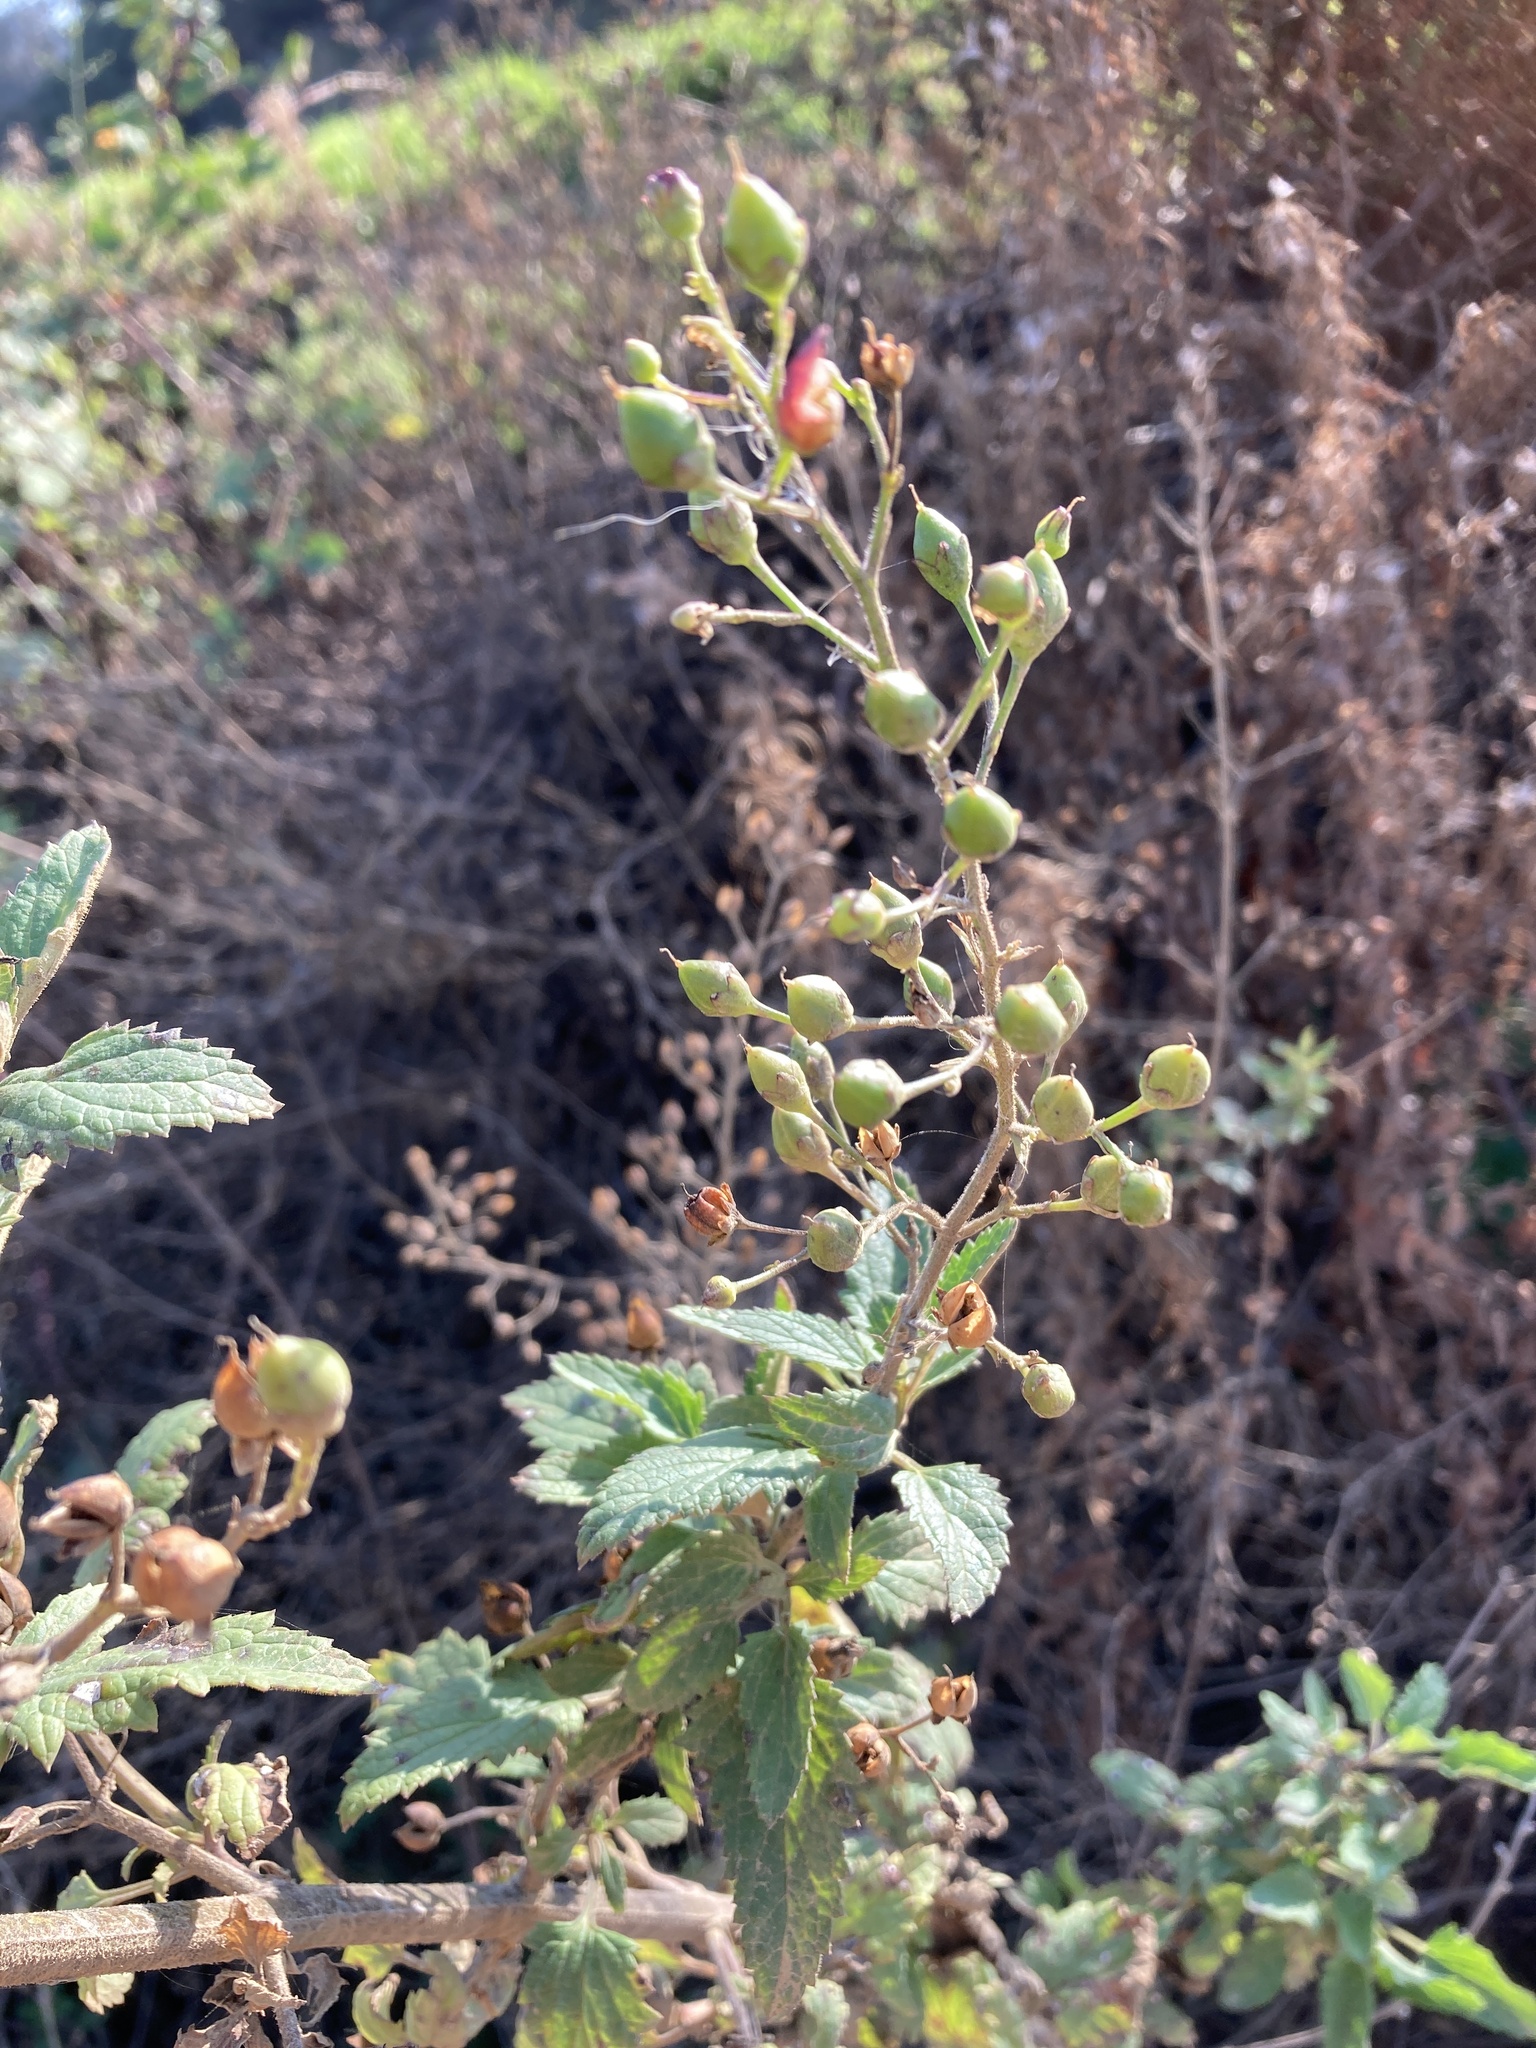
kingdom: Plantae
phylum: Tracheophyta
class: Magnoliopsida
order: Lamiales
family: Scrophulariaceae
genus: Scrophularia
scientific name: Scrophularia californica
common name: California figwort
